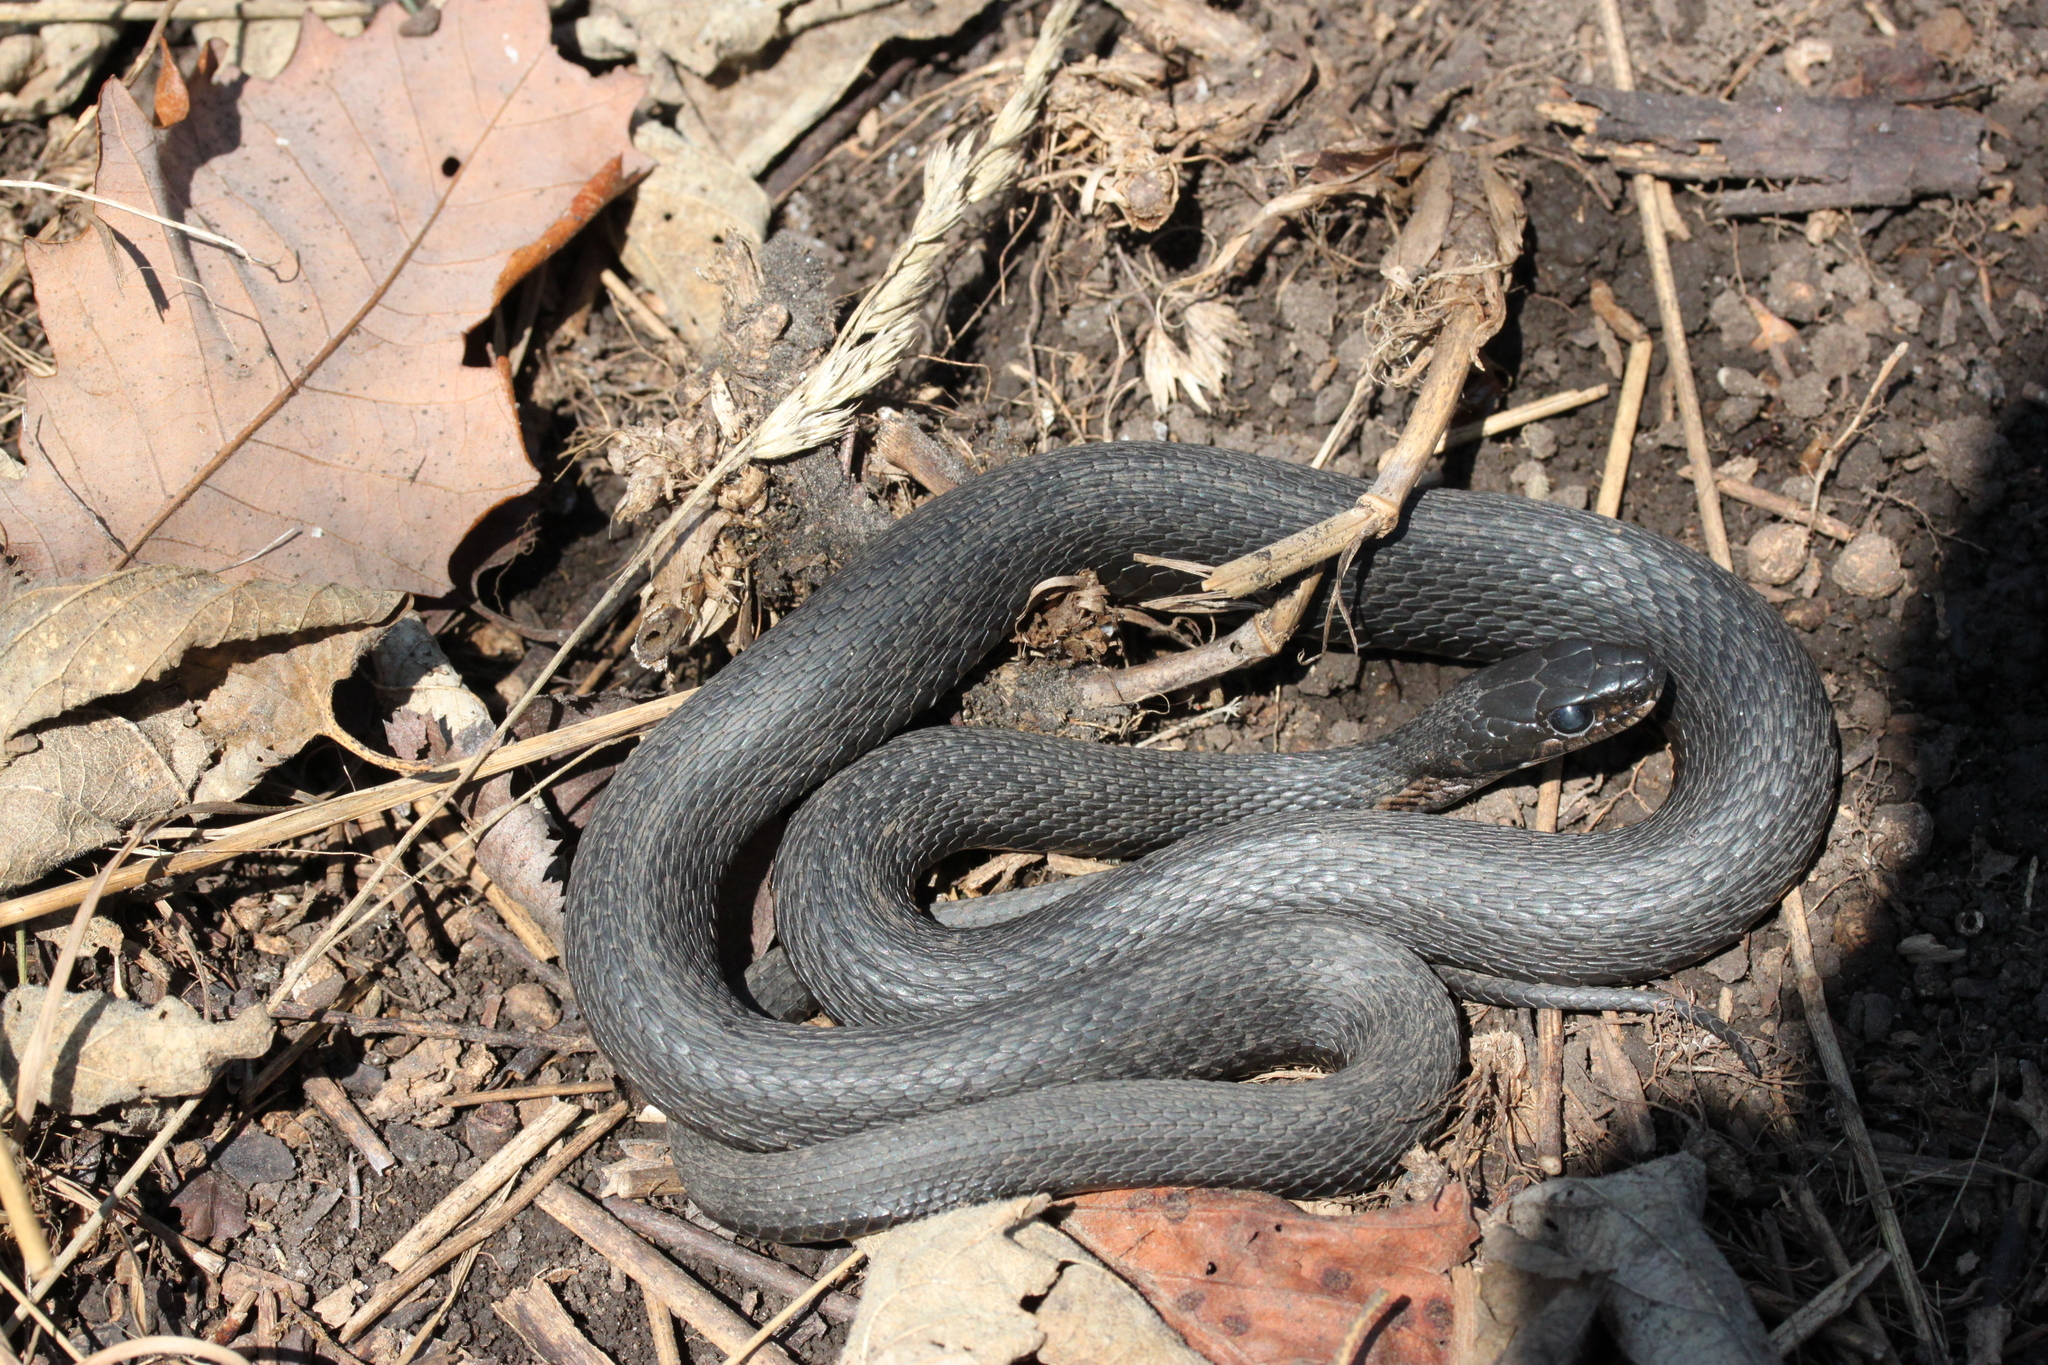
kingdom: Animalia
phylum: Chordata
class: Squamata
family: Colubridae
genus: Thamnophis
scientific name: Thamnophis sirtalis
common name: Common garter snake
